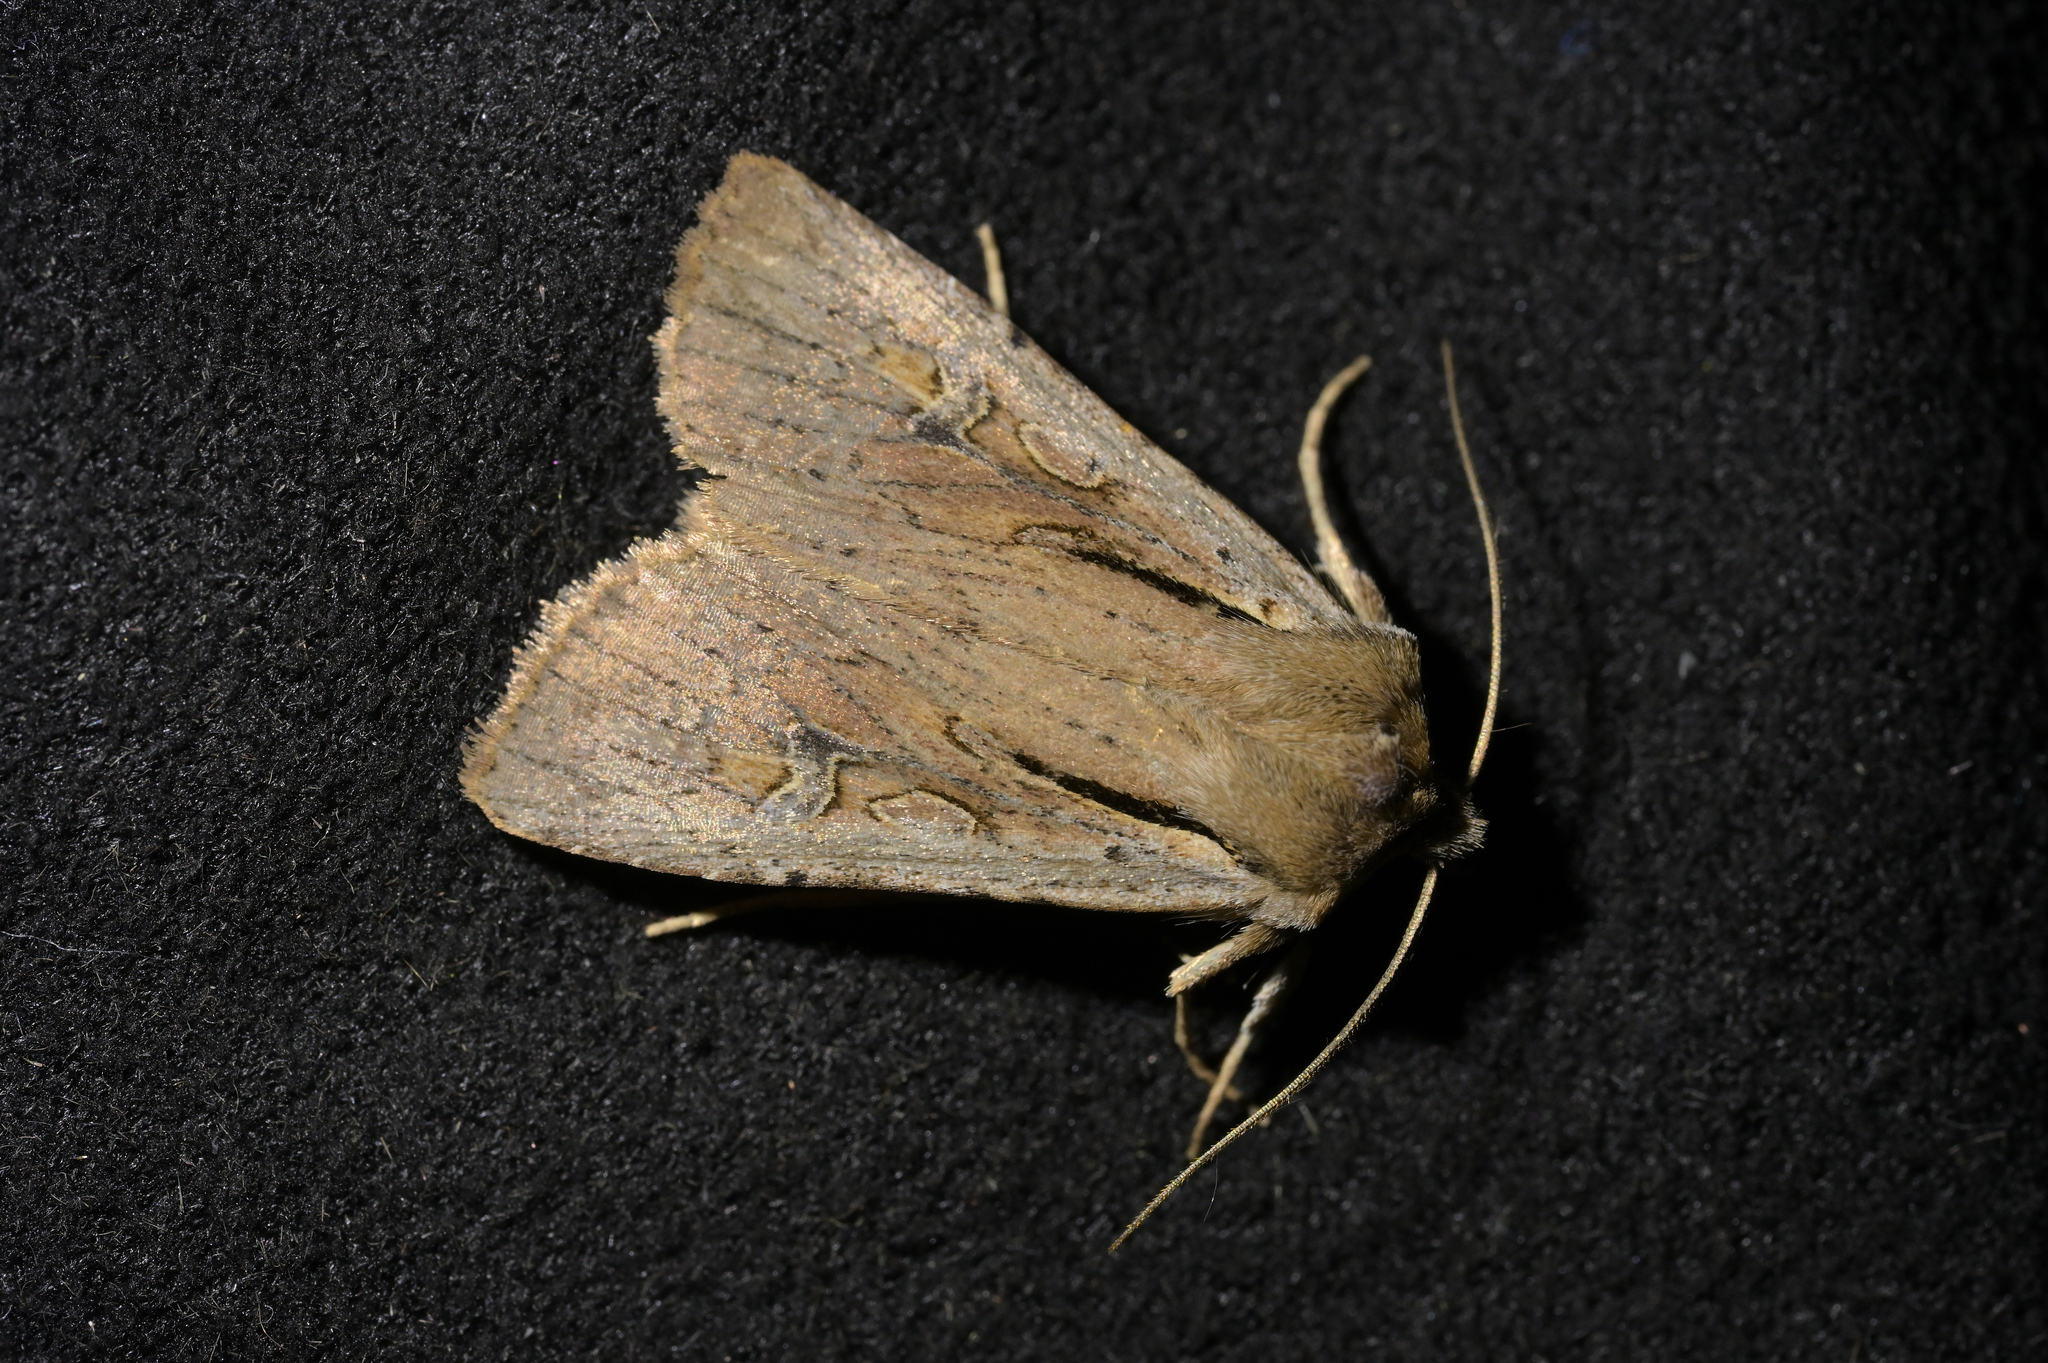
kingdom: Animalia
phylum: Arthropoda
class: Insecta
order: Lepidoptera
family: Noctuidae
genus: Ichneutica
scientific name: Ichneutica atristriga
